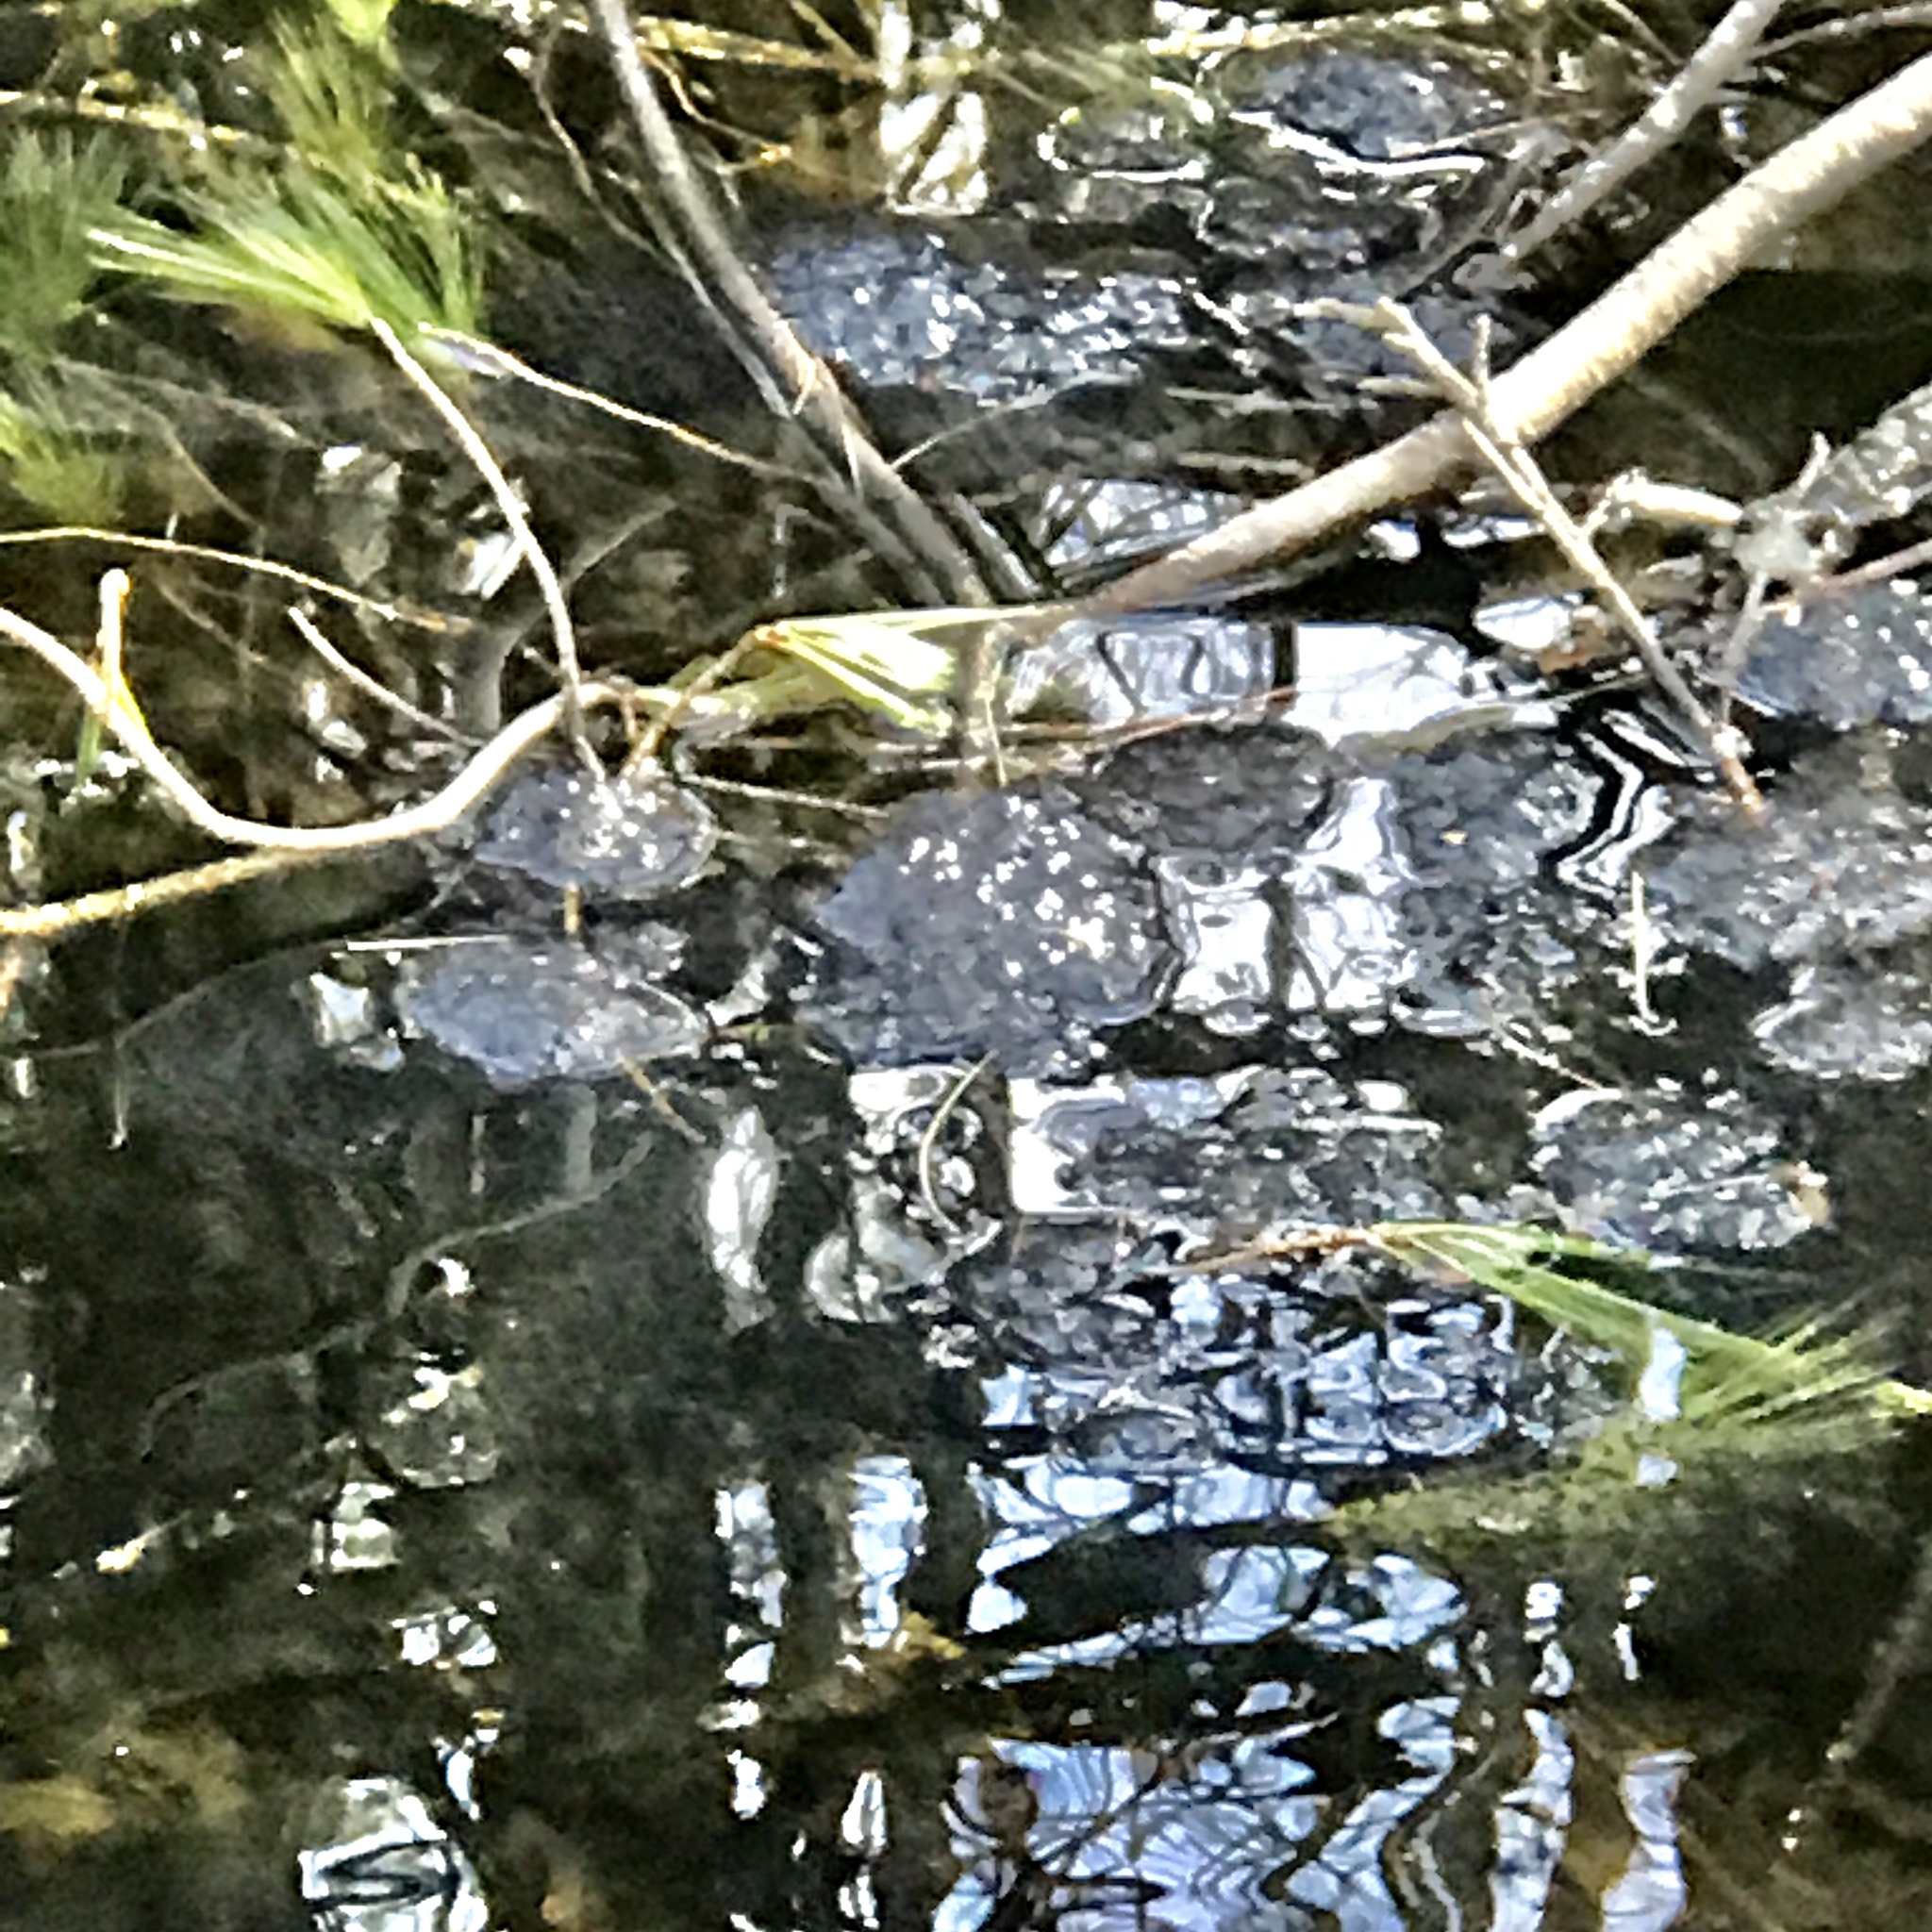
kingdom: Animalia
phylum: Chordata
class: Amphibia
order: Anura
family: Ranidae
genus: Lithobates
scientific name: Lithobates sylvaticus
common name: Wood frog
